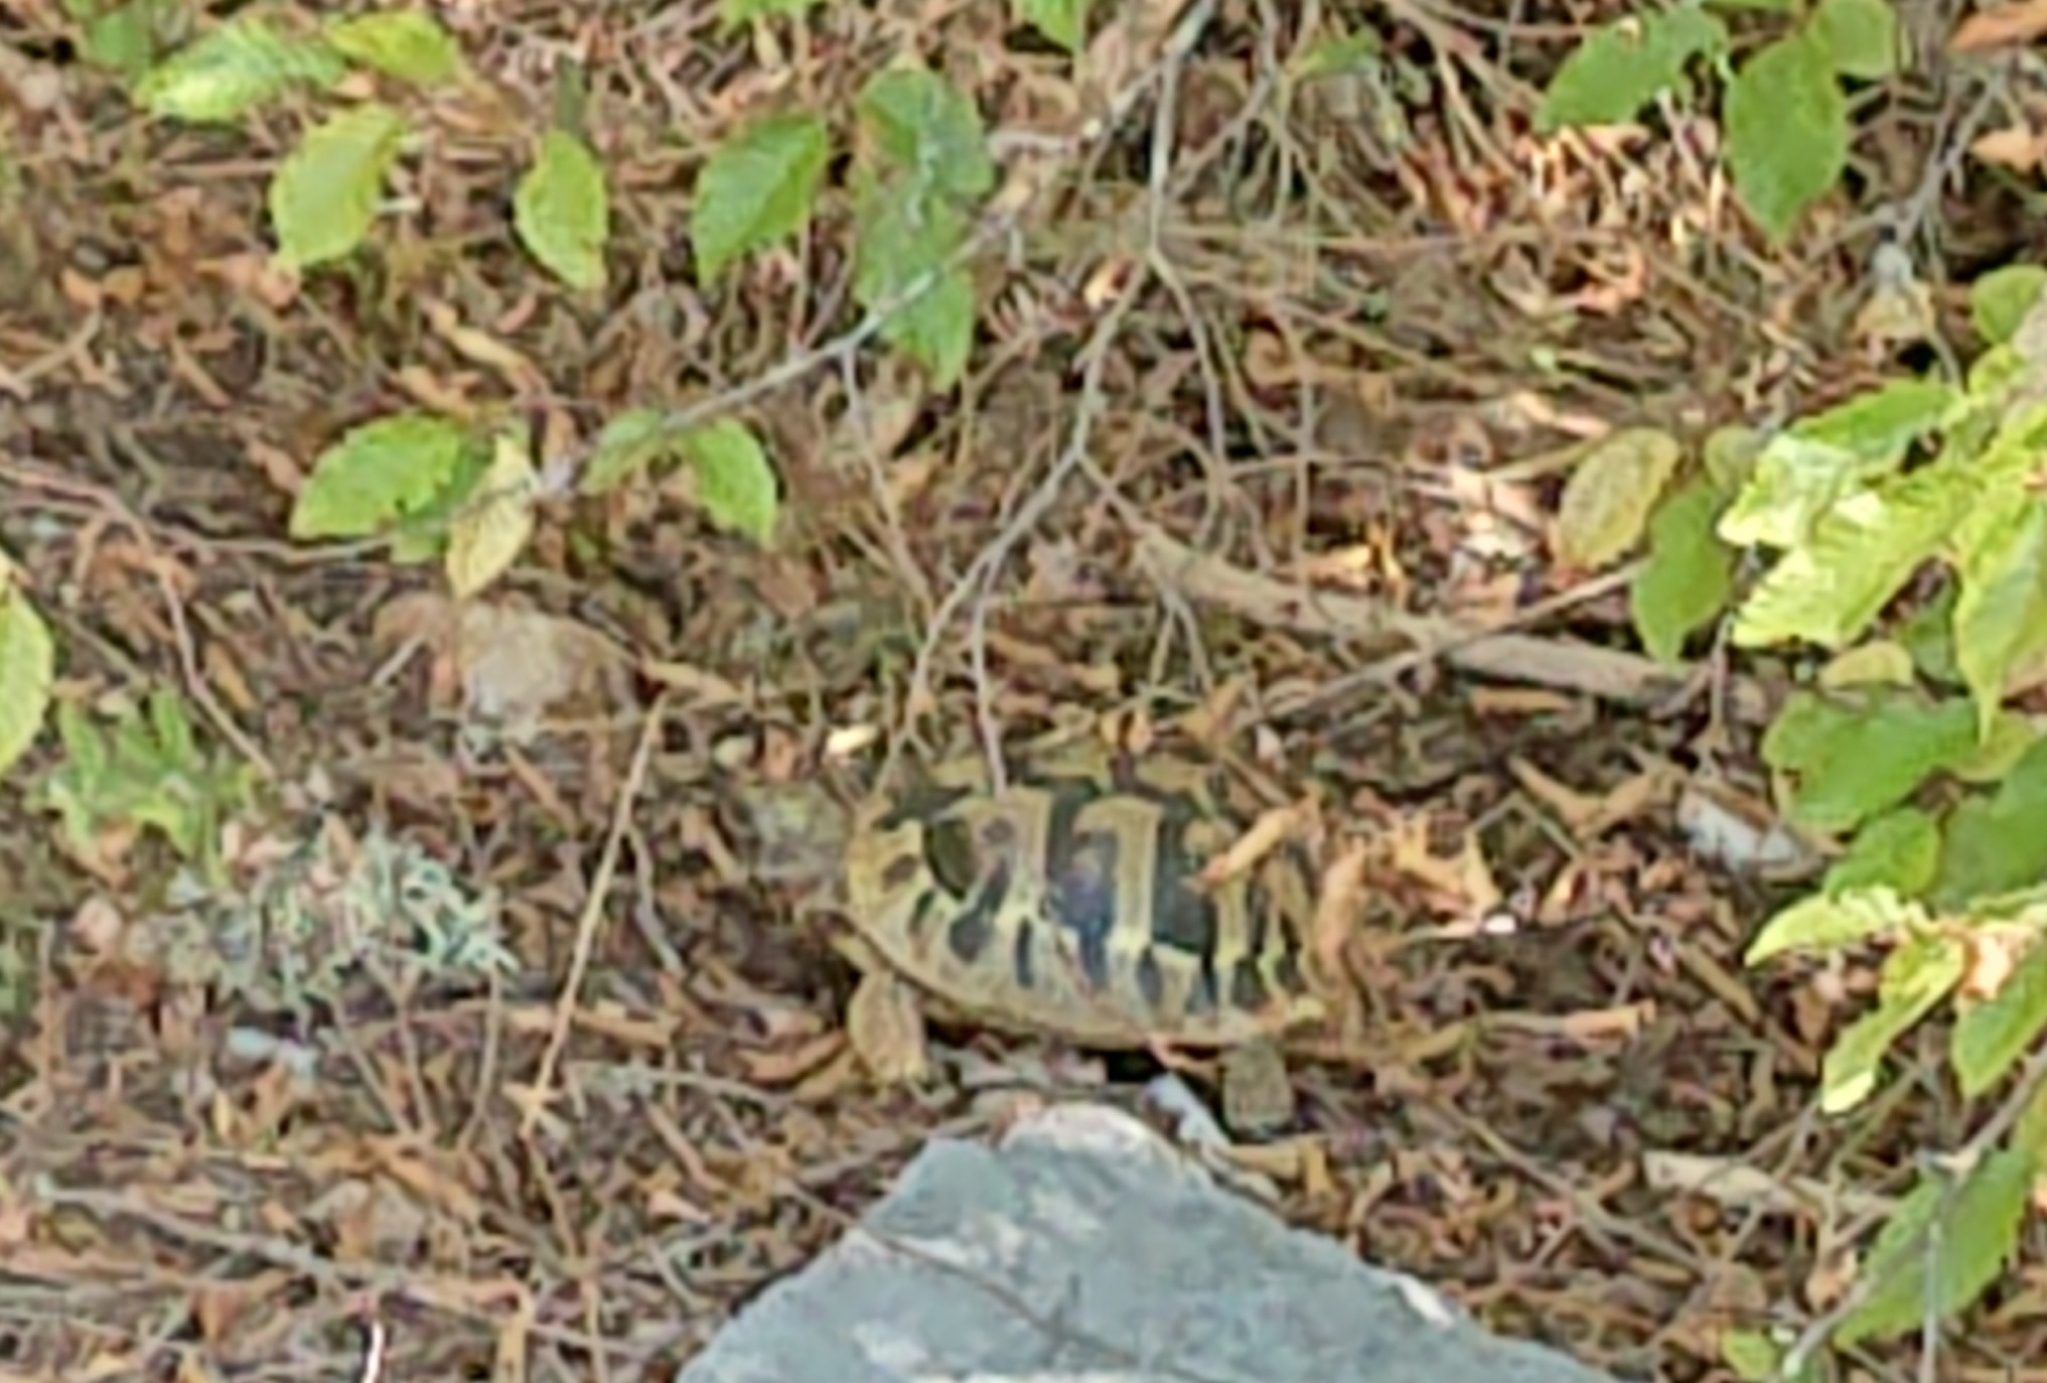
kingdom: Animalia
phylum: Chordata
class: Testudines
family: Testudinidae
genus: Testudo
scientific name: Testudo hermanni
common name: Hermann's tortoise
